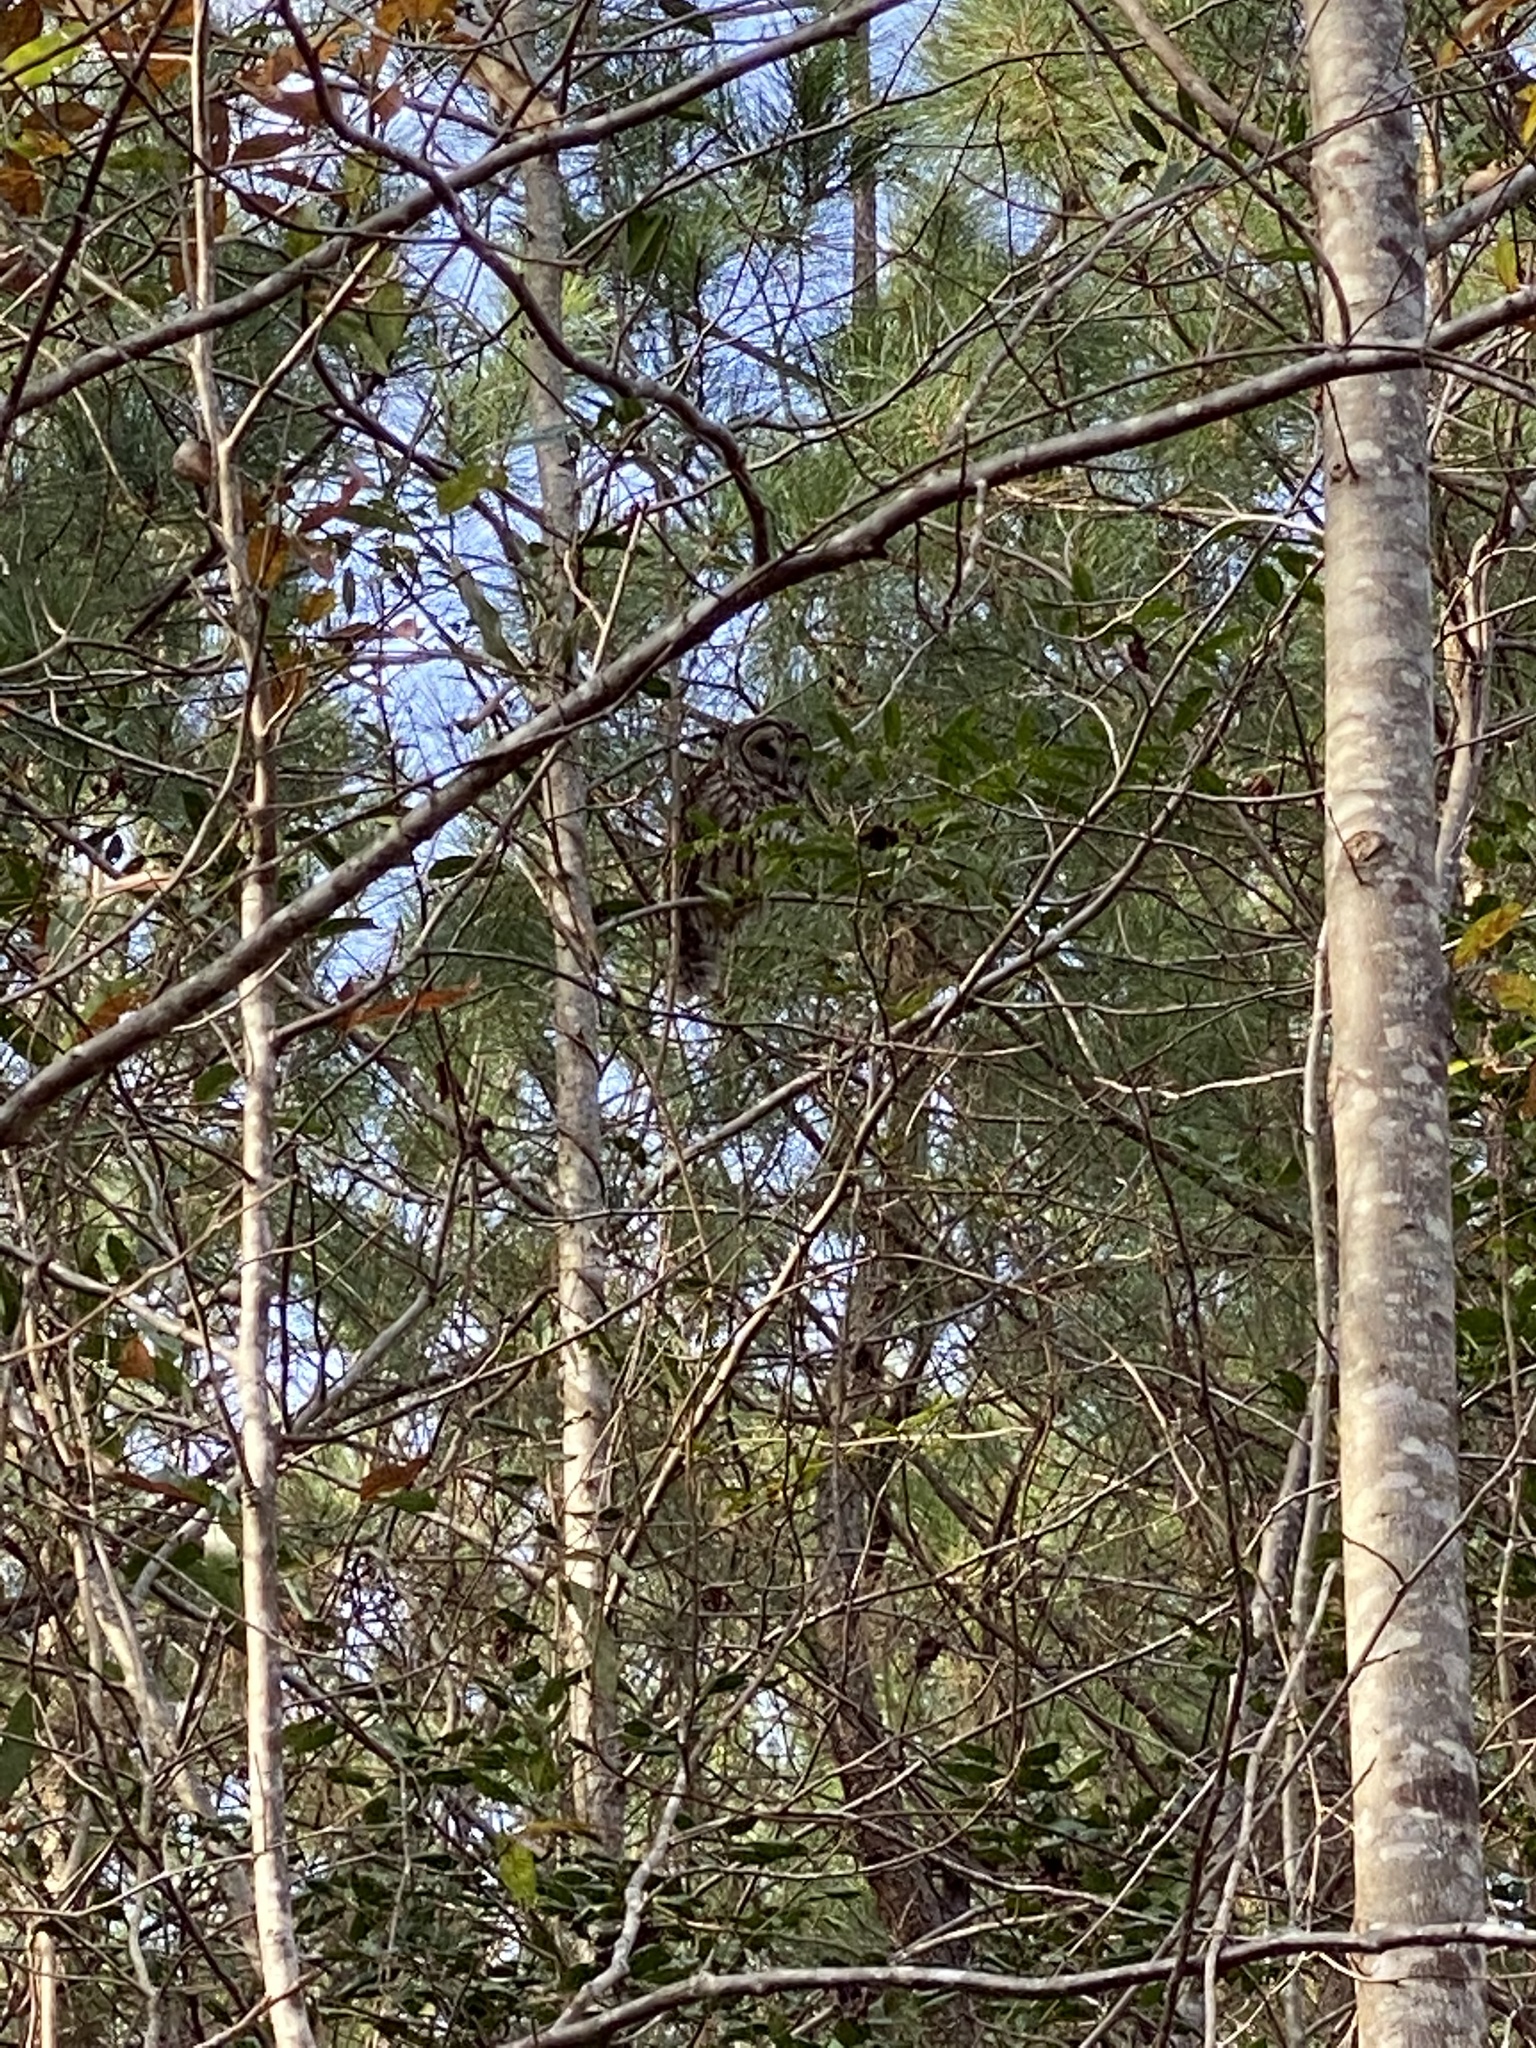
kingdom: Animalia
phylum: Chordata
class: Aves
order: Strigiformes
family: Strigidae
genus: Strix
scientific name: Strix varia
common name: Barred owl
